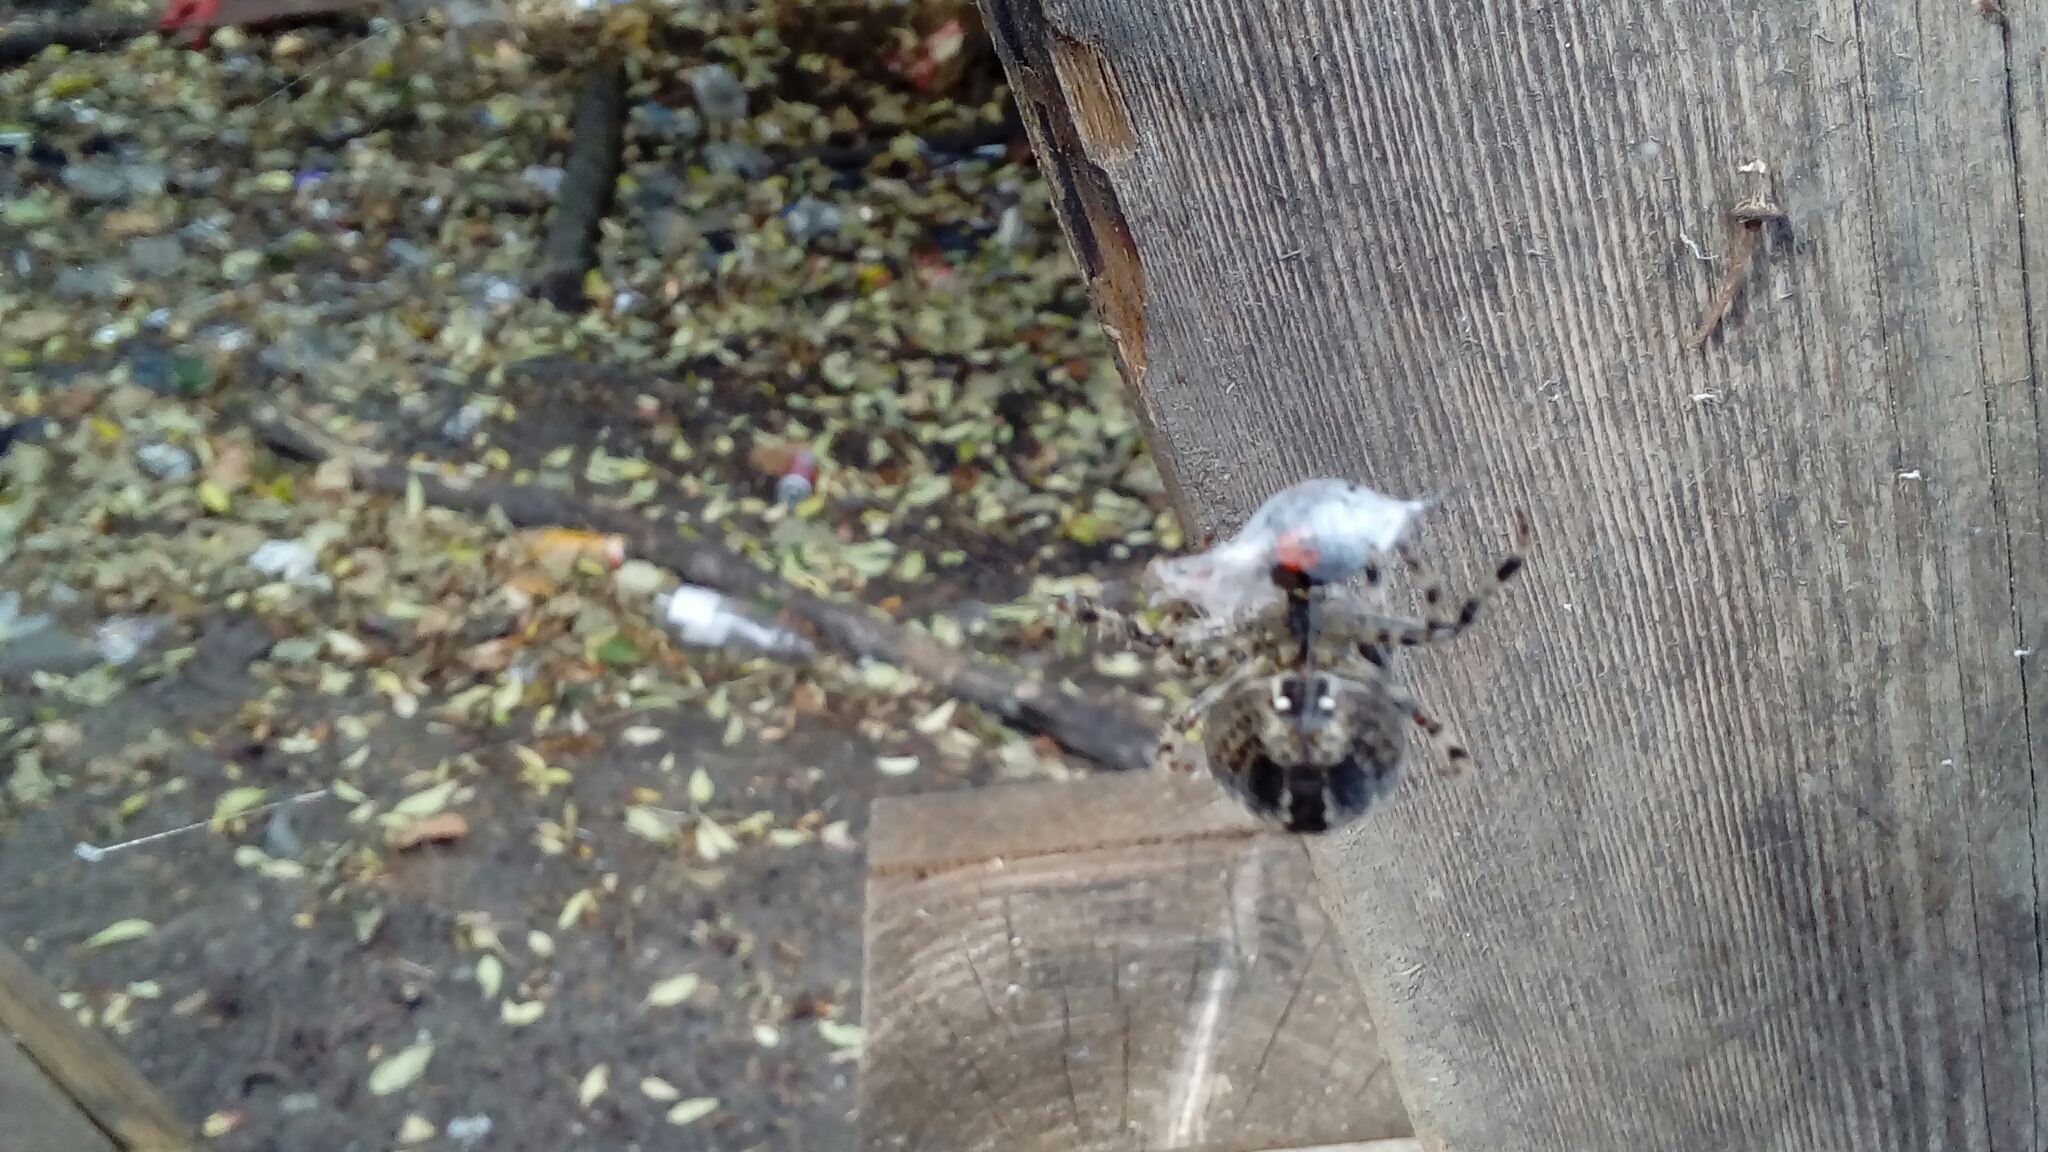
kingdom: Animalia
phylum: Arthropoda
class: Arachnida
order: Araneae
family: Araneidae
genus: Araneus
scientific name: Araneus diadematus
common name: Cross orbweaver
